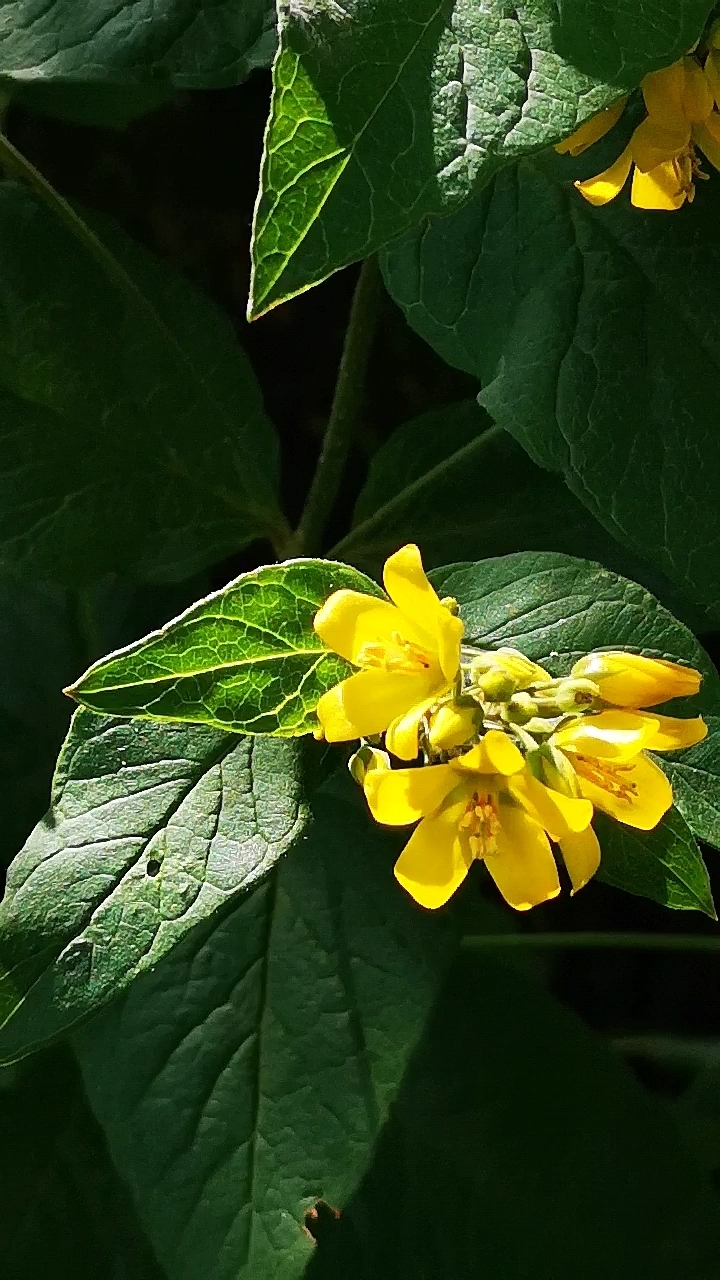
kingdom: Plantae
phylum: Tracheophyta
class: Magnoliopsida
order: Ericales
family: Primulaceae
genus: Lysimachia
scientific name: Lysimachia vulgaris
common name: Yellow loosestrife
